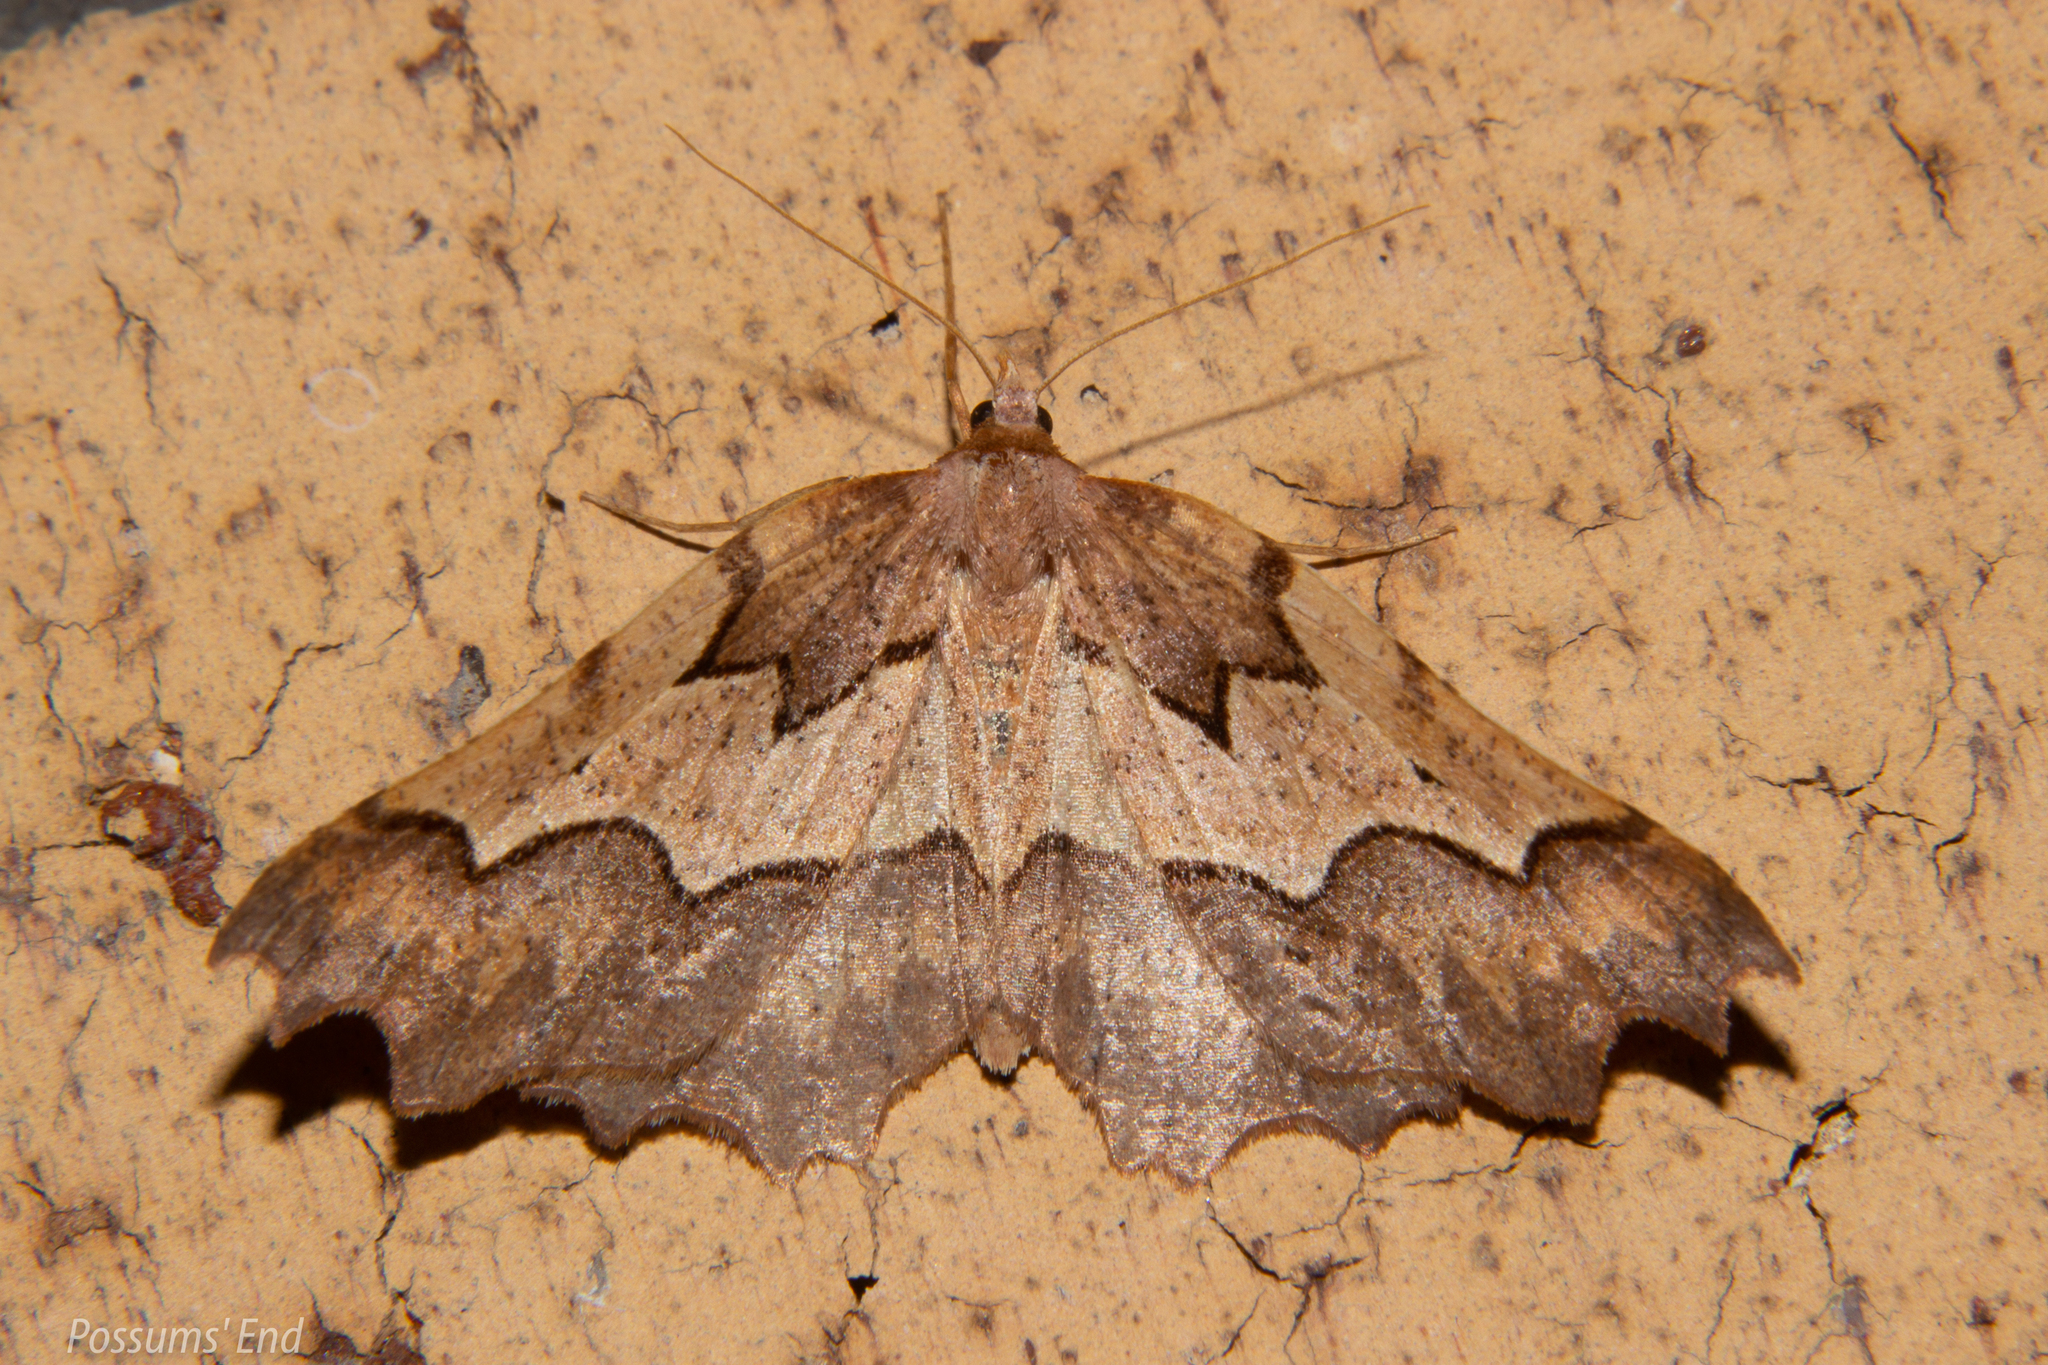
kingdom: Animalia
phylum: Arthropoda
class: Insecta
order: Lepidoptera
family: Geometridae
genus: Ischalis
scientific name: Ischalis fortinata
